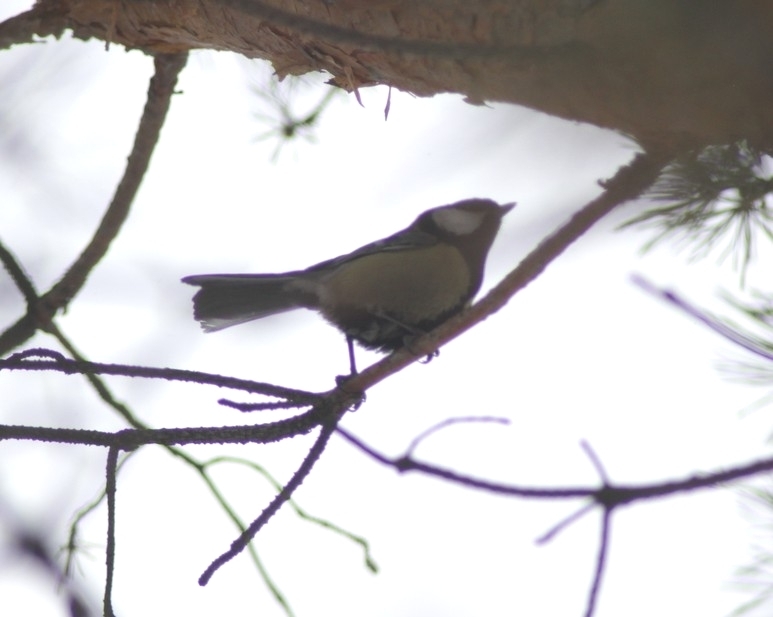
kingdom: Animalia
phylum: Chordata
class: Aves
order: Passeriformes
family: Paridae
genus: Parus
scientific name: Parus major
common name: Great tit
